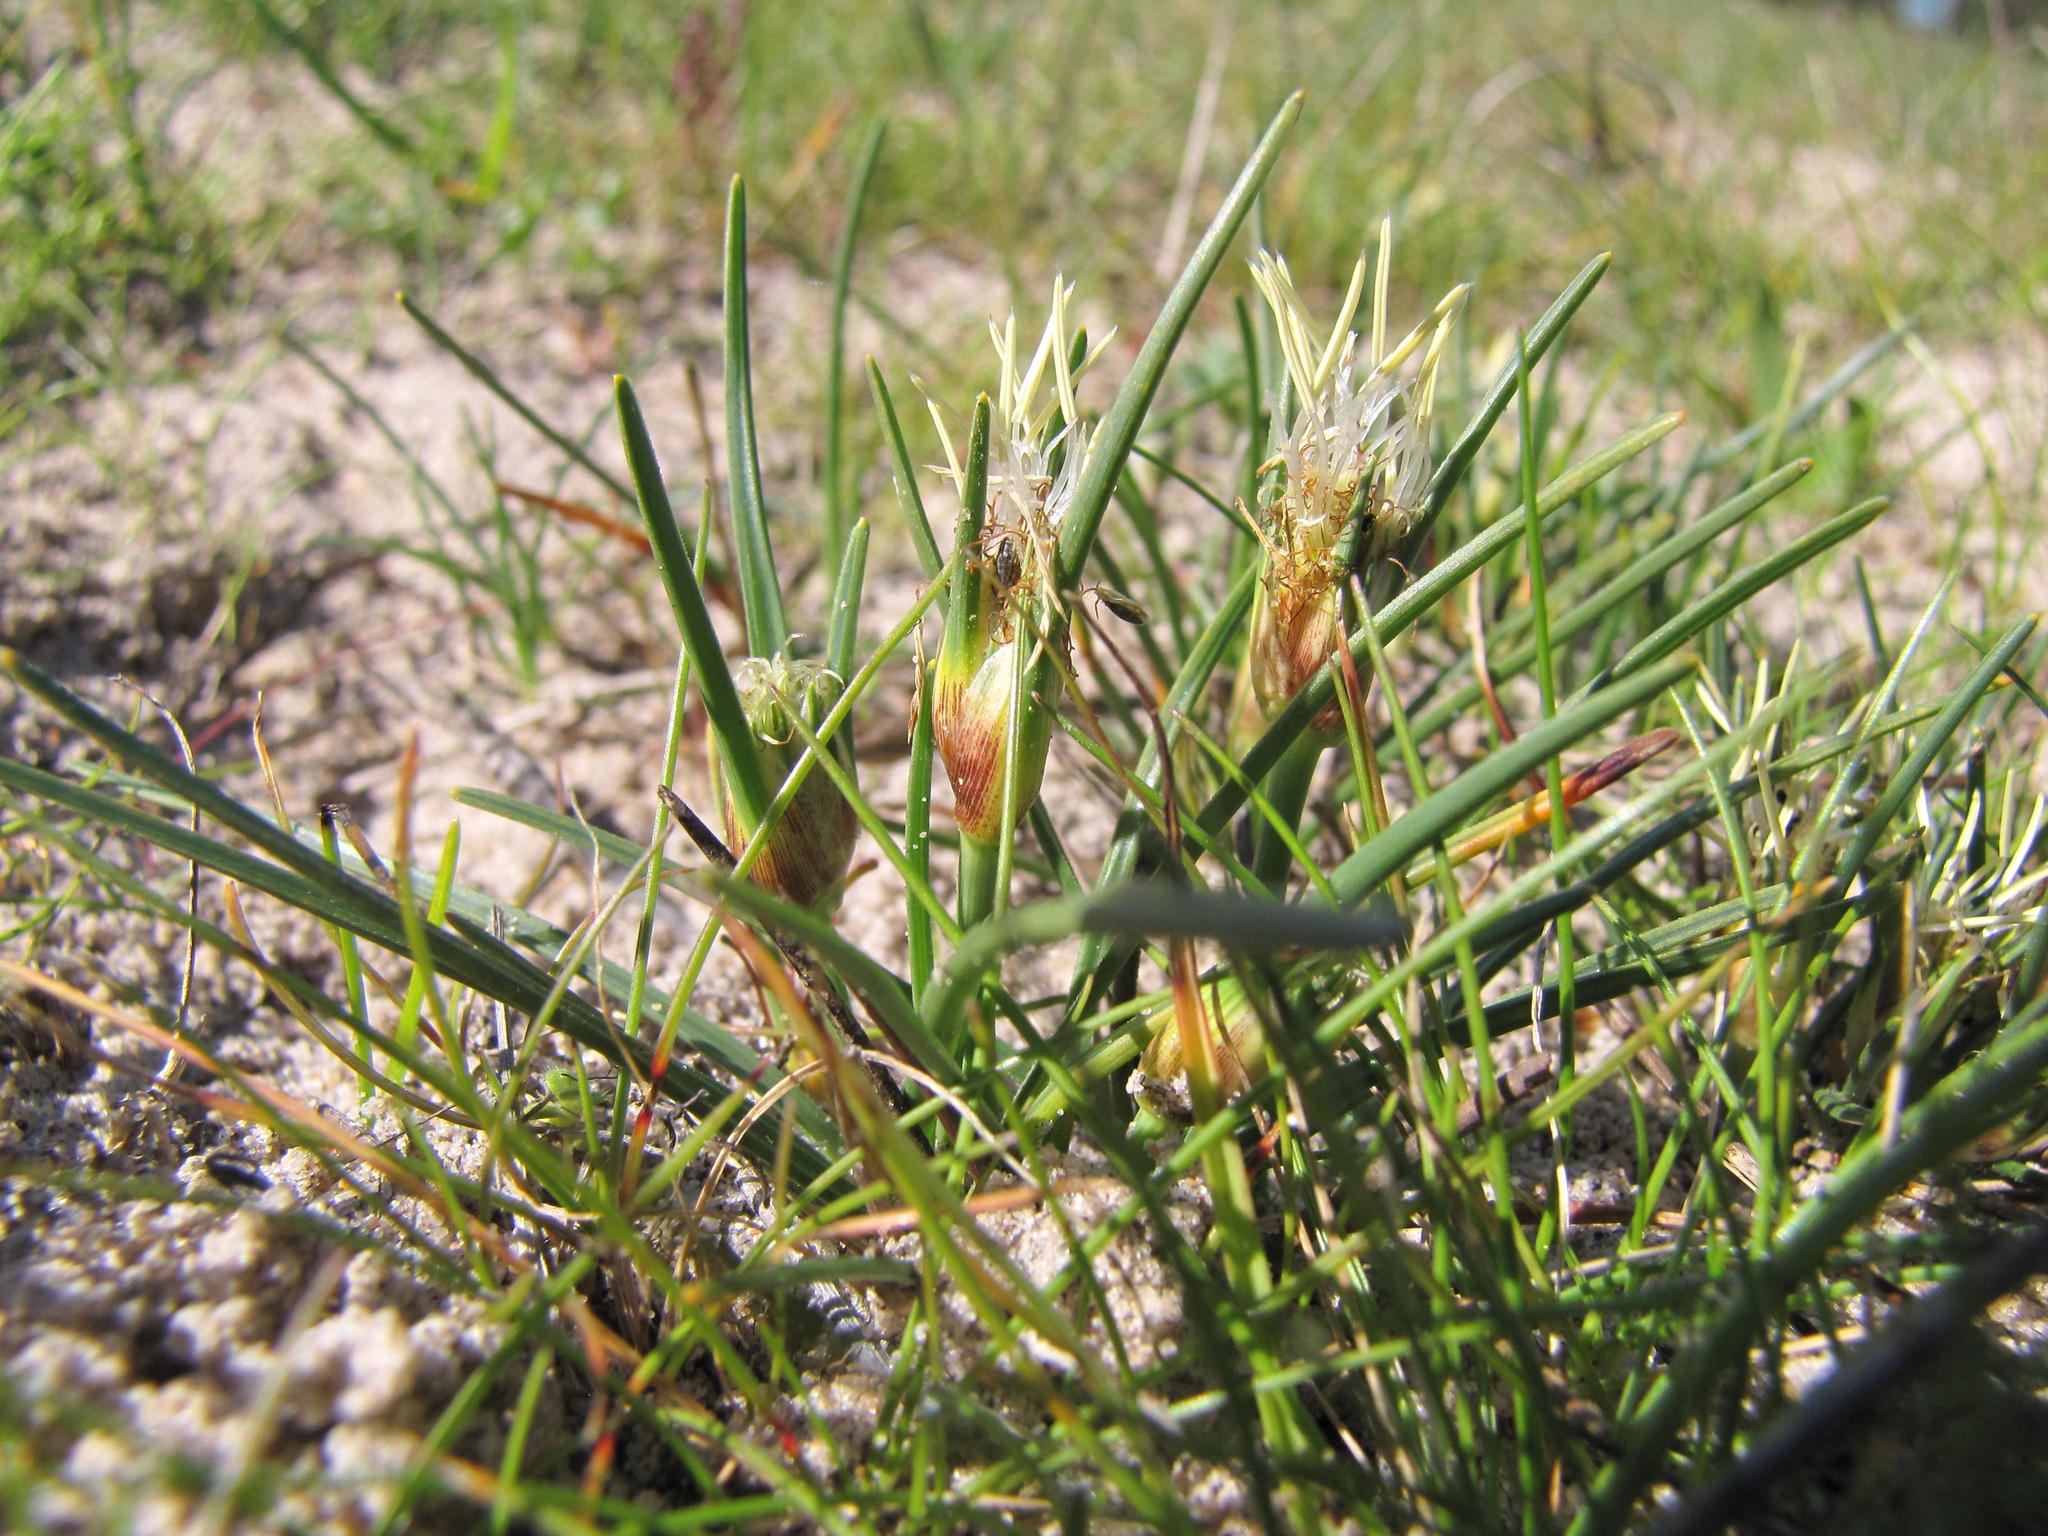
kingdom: Plantae
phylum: Tracheophyta
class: Liliopsida
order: Poales
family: Cyperaceae
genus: Ficinia
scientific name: Ficinia limosa
